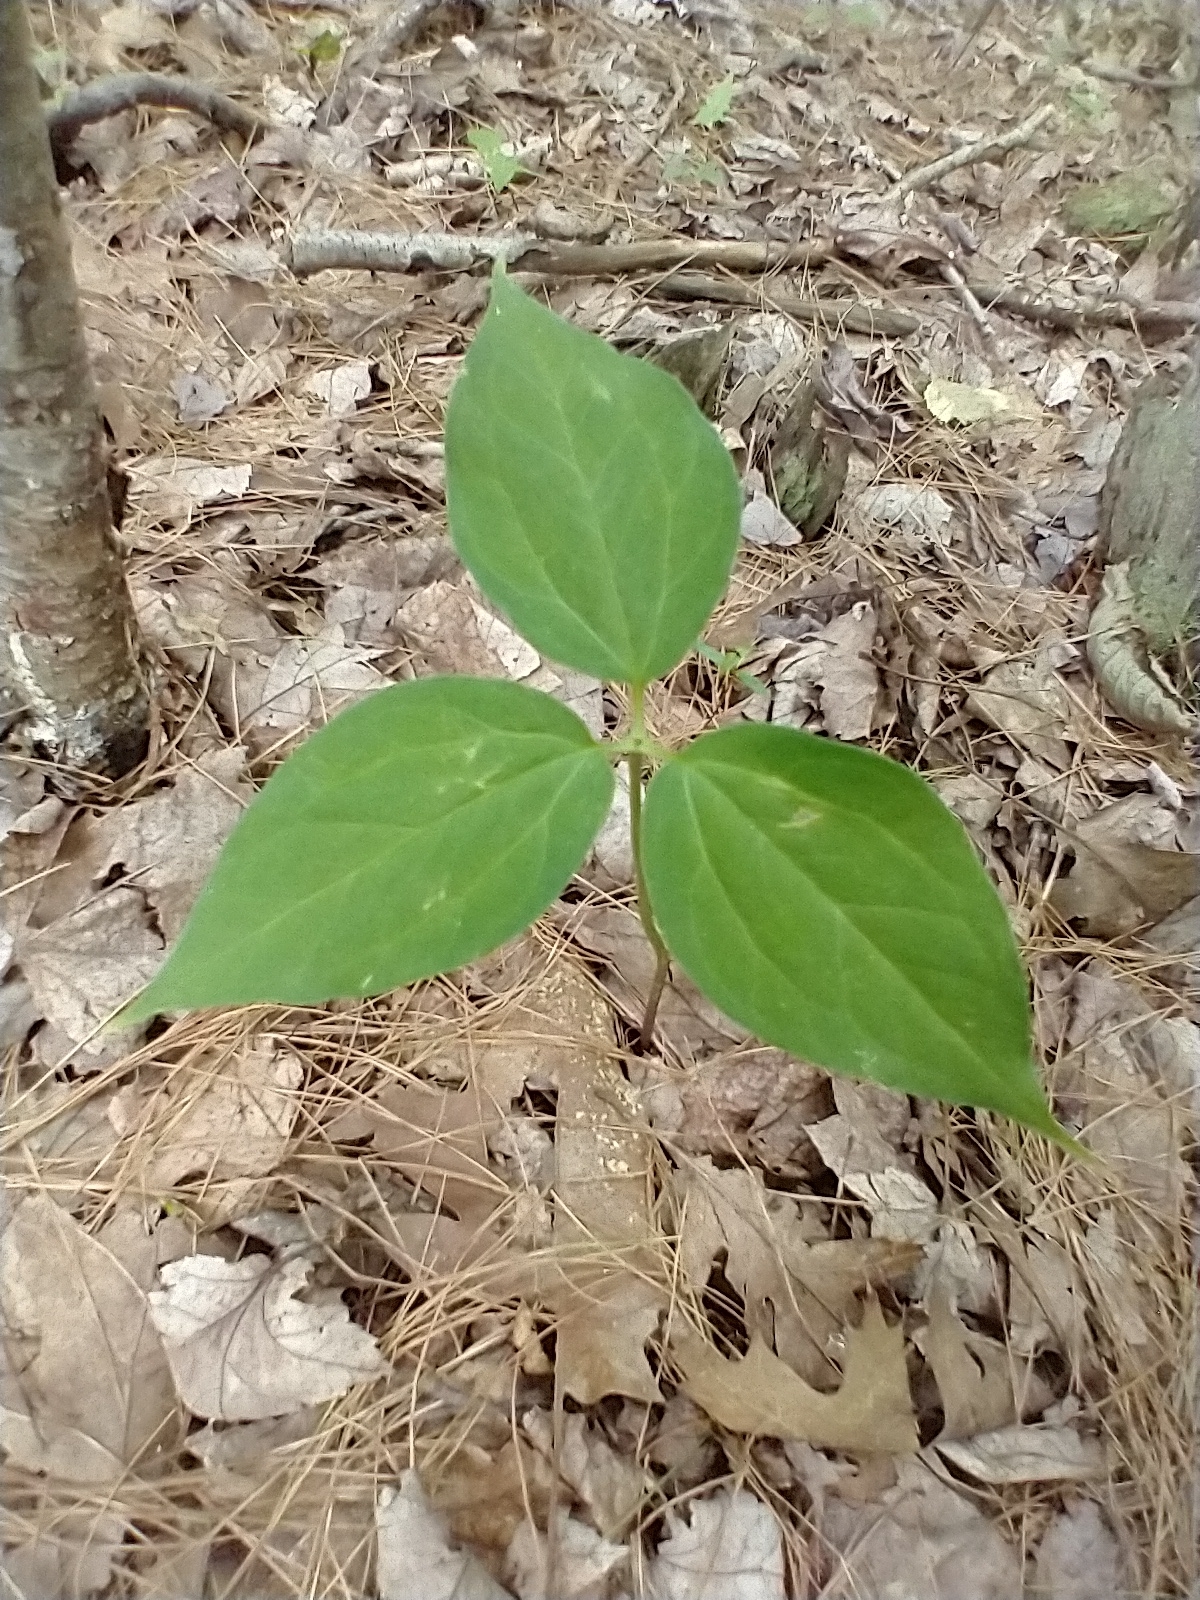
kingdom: Plantae
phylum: Tracheophyta
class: Liliopsida
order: Liliales
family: Melanthiaceae
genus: Trillium
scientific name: Trillium undulatum
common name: Paint trillium
